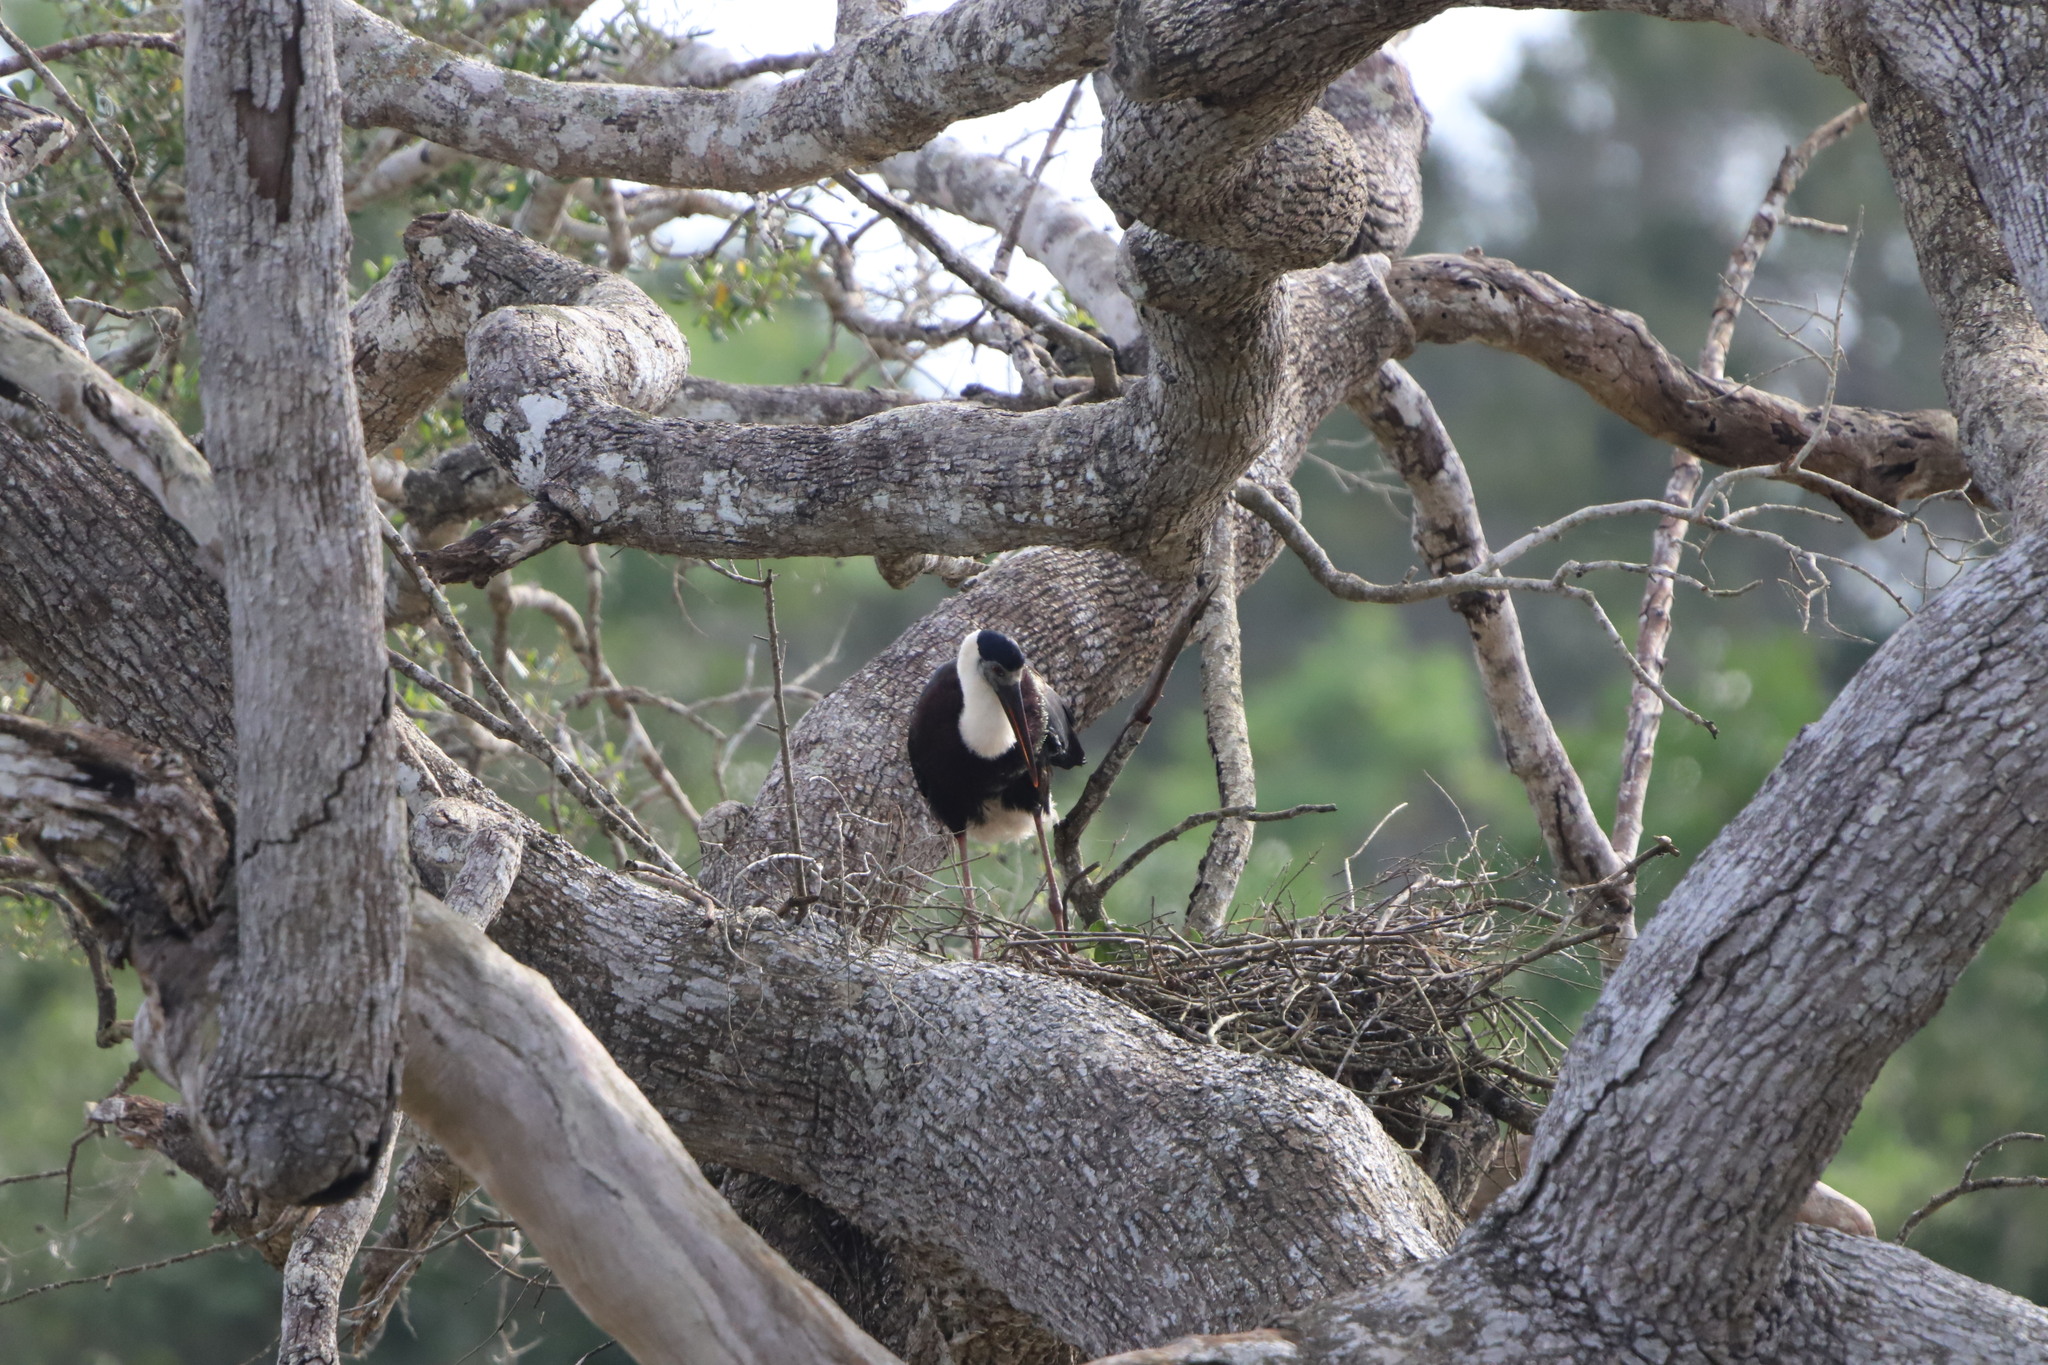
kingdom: Animalia
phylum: Chordata
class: Aves
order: Ciconiiformes
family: Ciconiidae
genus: Ciconia
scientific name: Ciconia episcopus
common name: Woolly-necked stork
